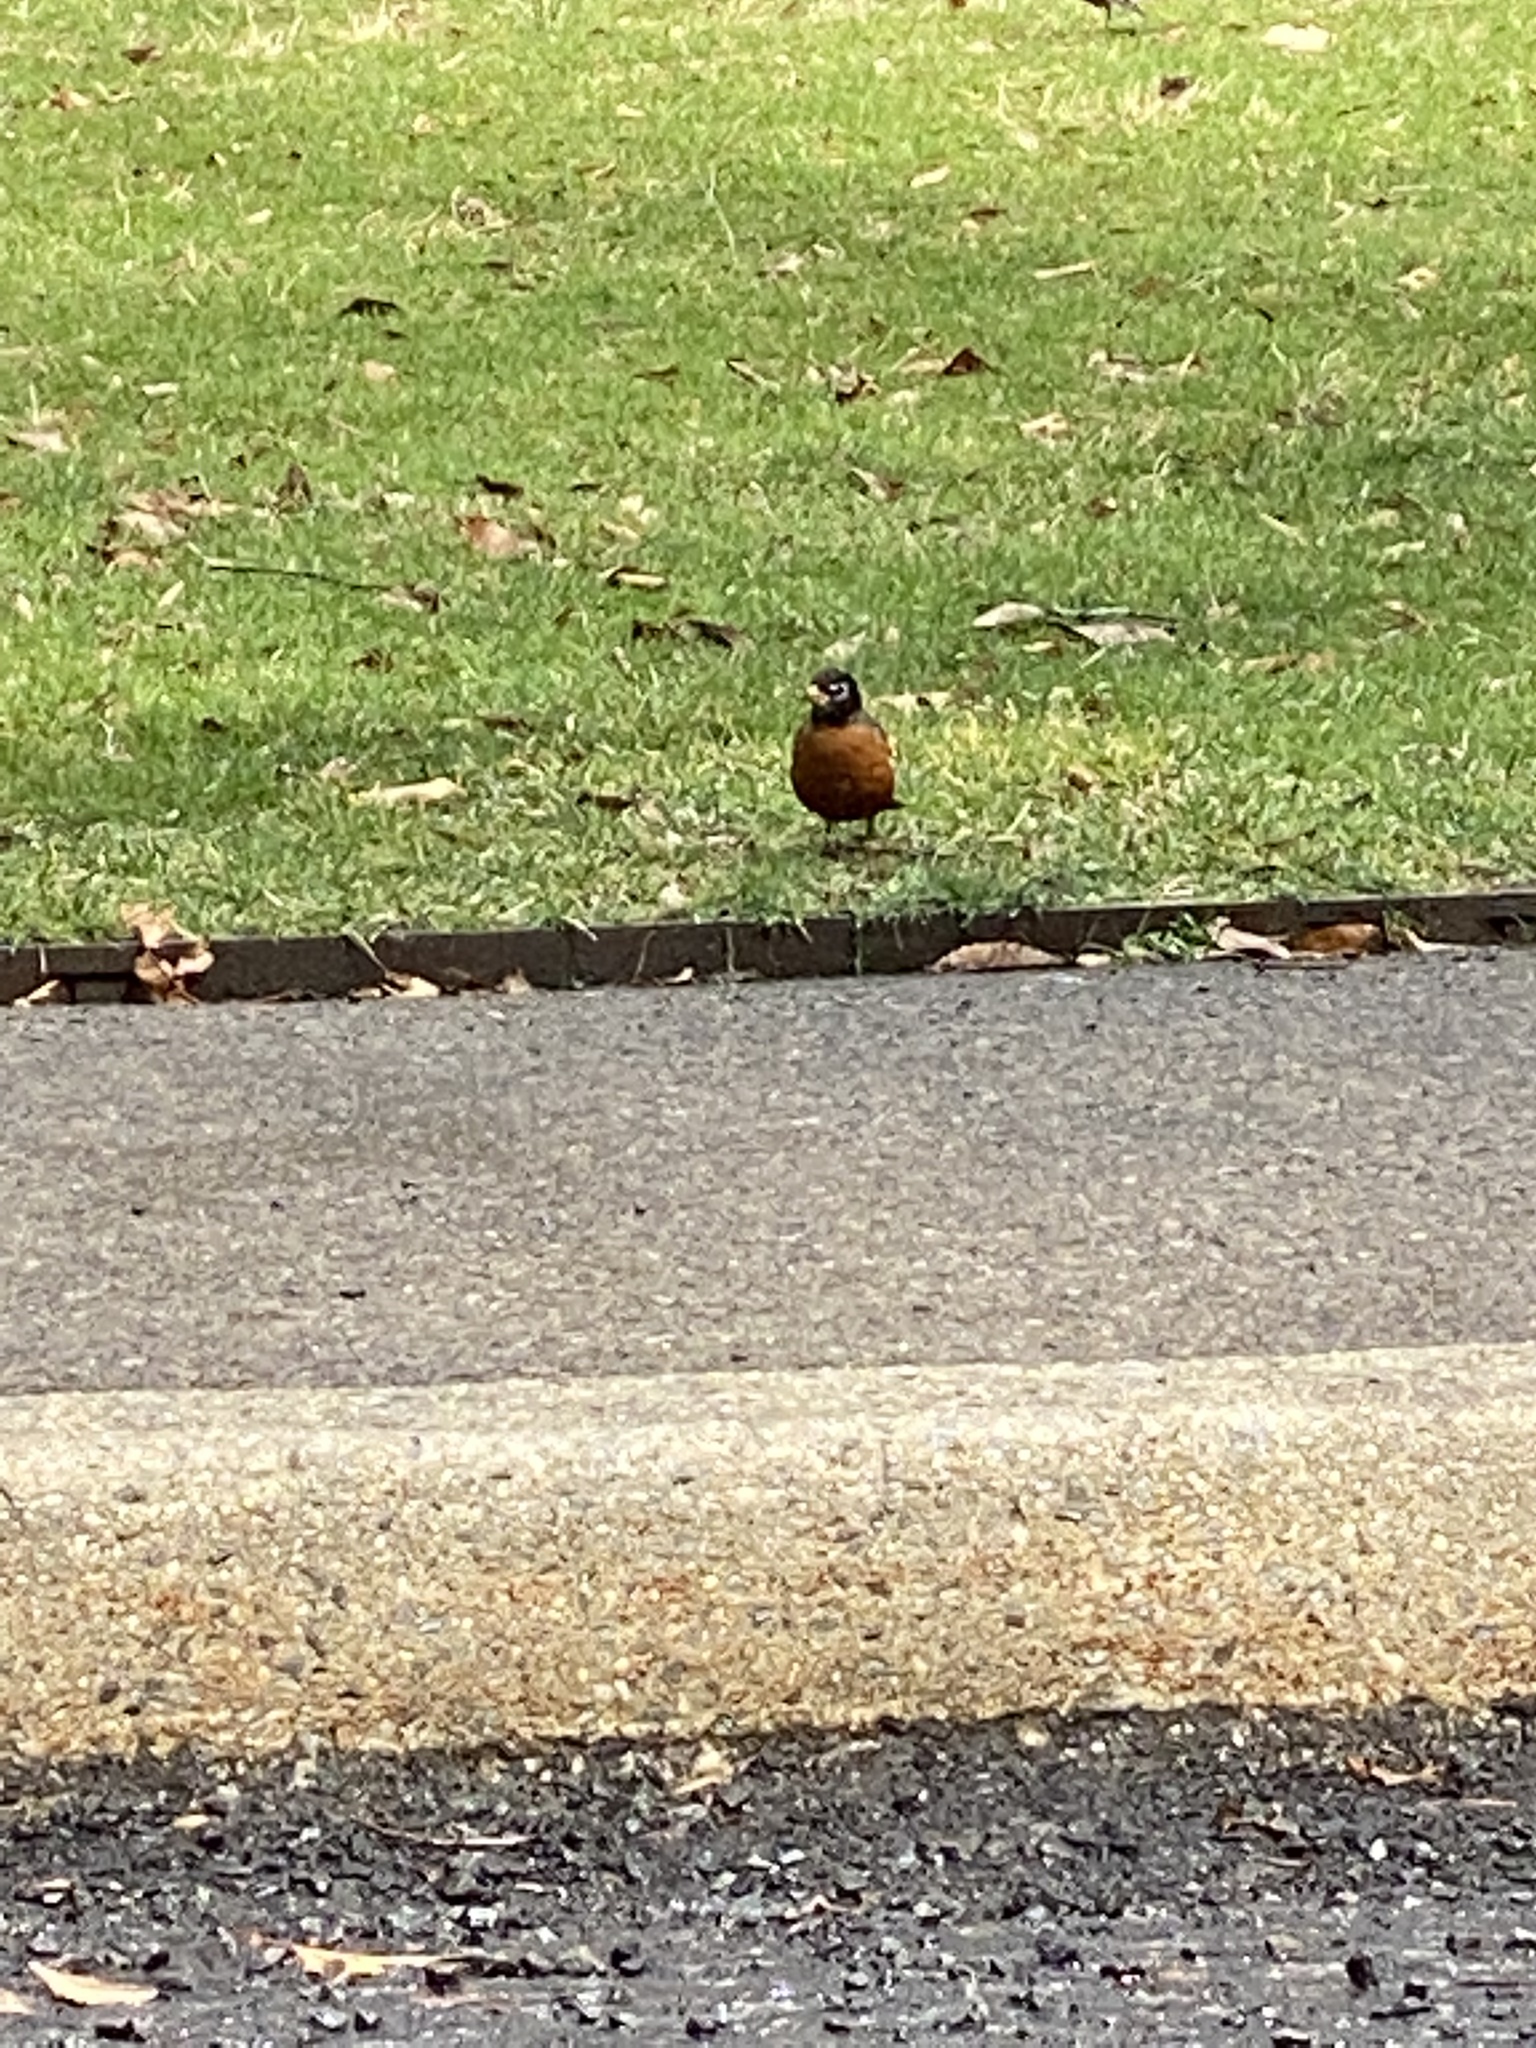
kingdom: Animalia
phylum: Chordata
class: Aves
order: Passeriformes
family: Turdidae
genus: Turdus
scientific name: Turdus migratorius
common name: American robin
